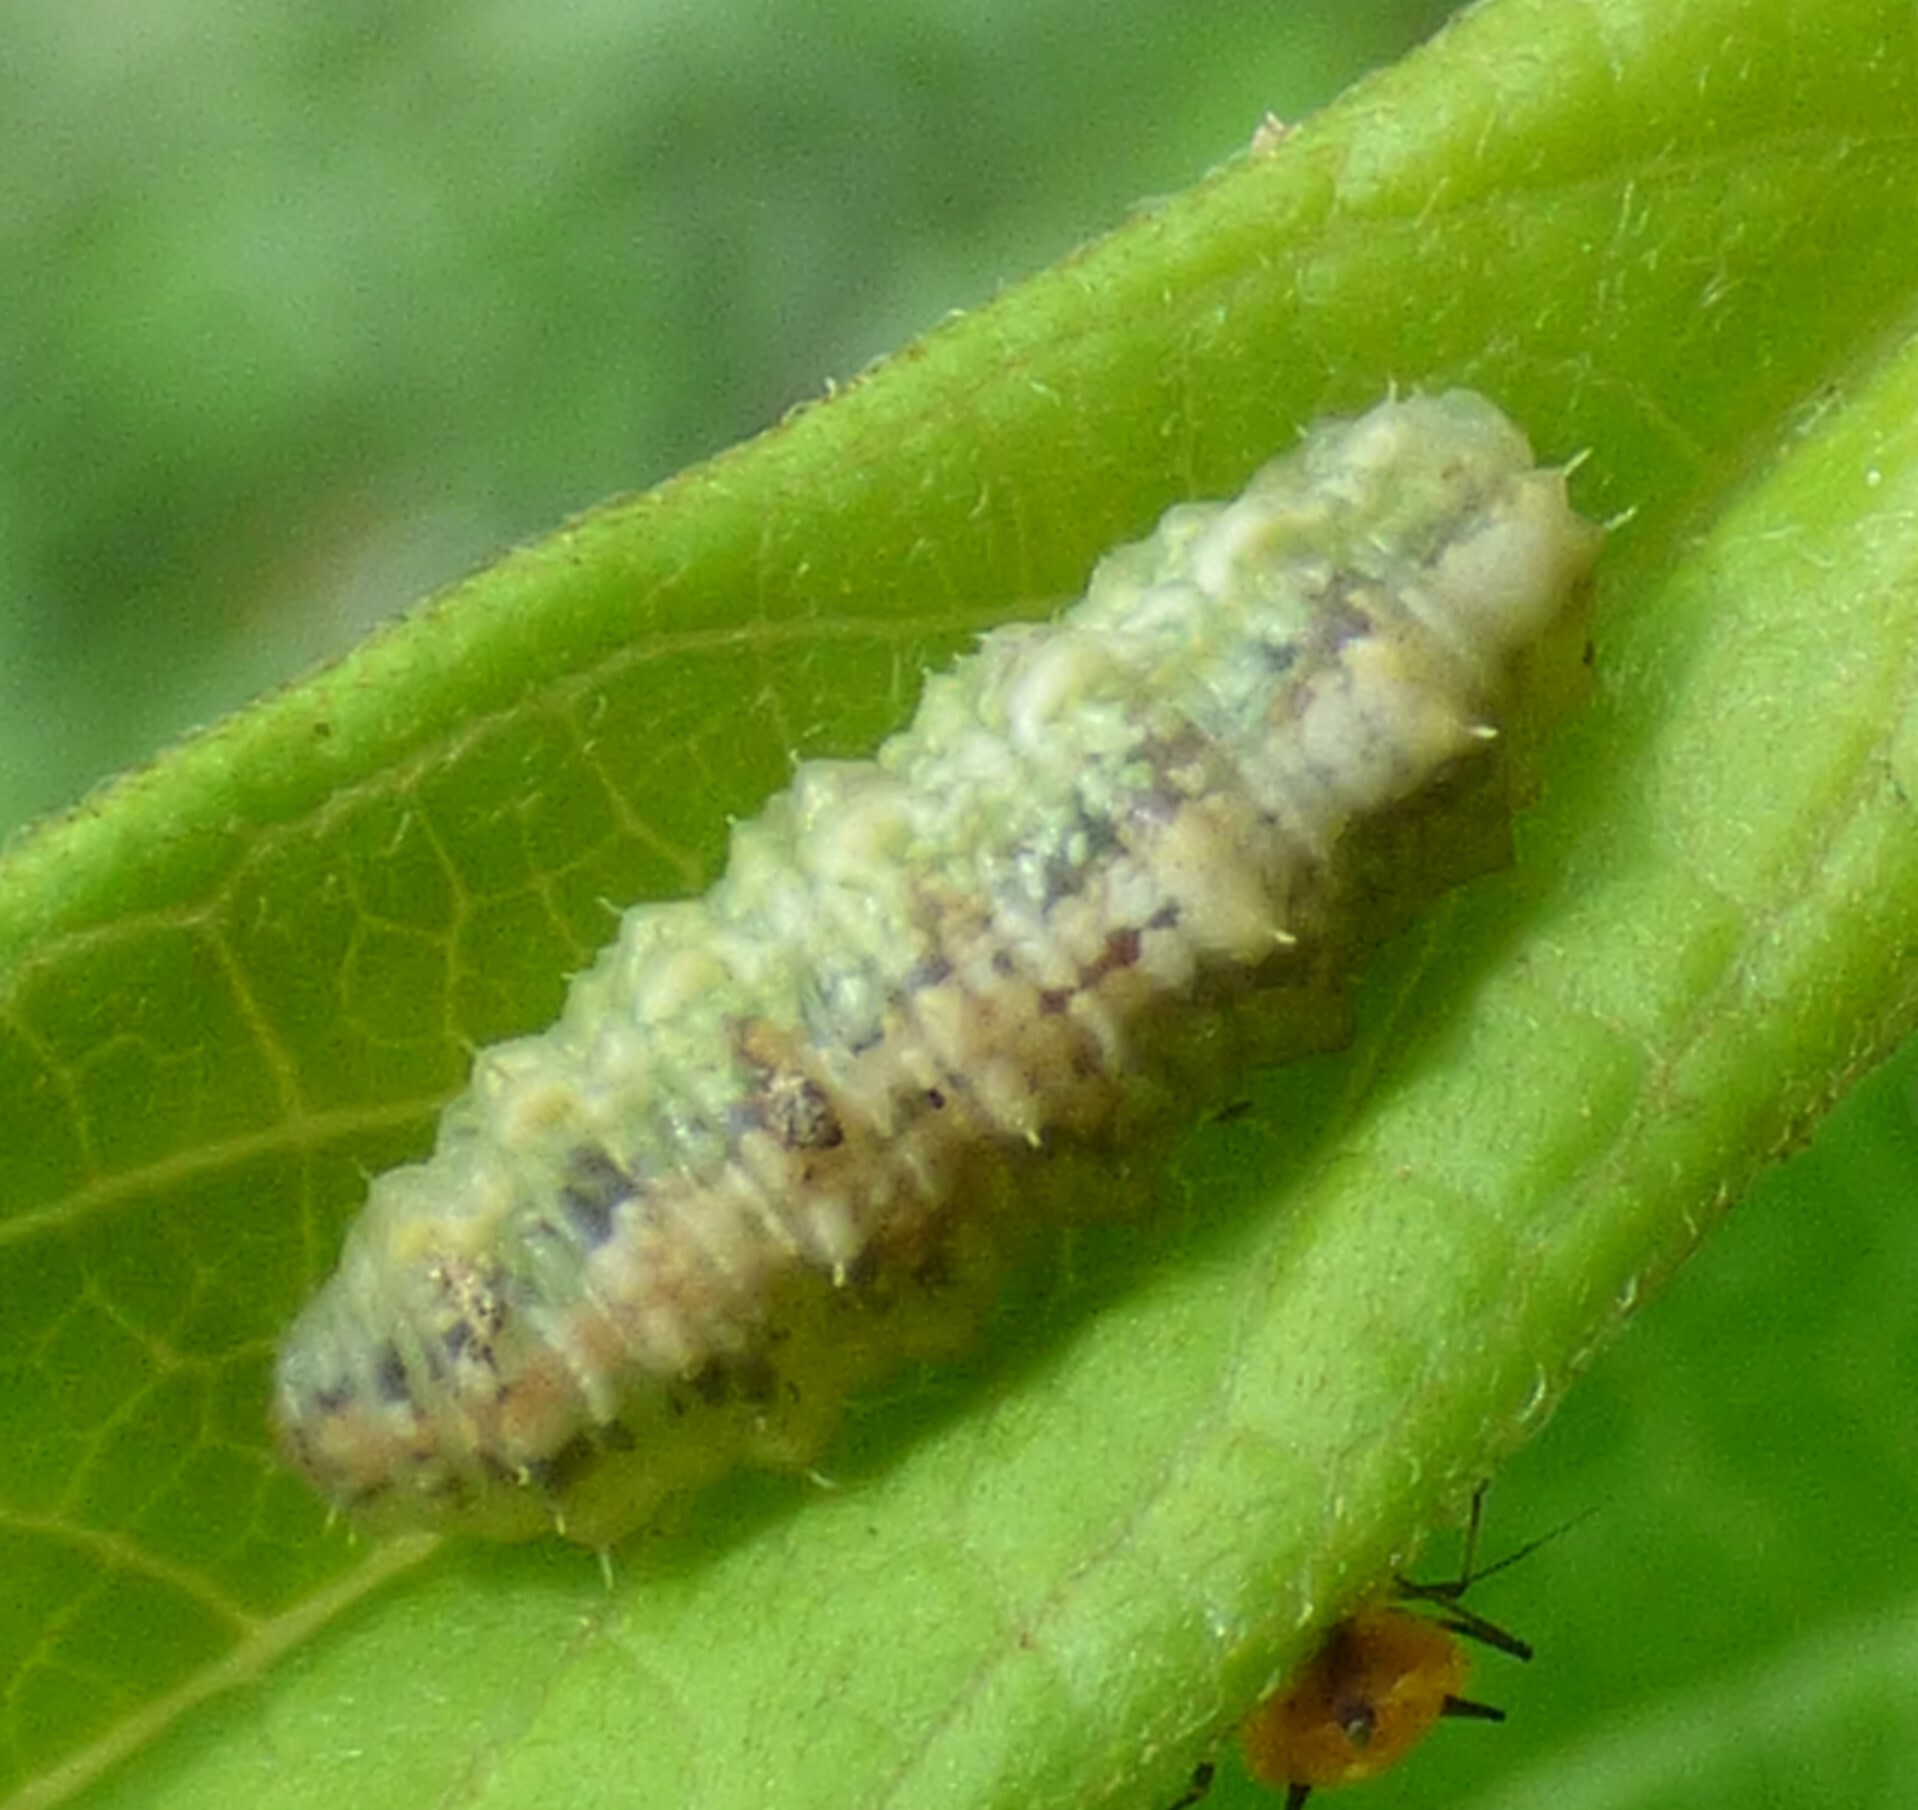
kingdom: Animalia
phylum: Arthropoda
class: Insecta
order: Diptera
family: Syrphidae
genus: Dioprosopa
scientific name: Dioprosopa clavatus
